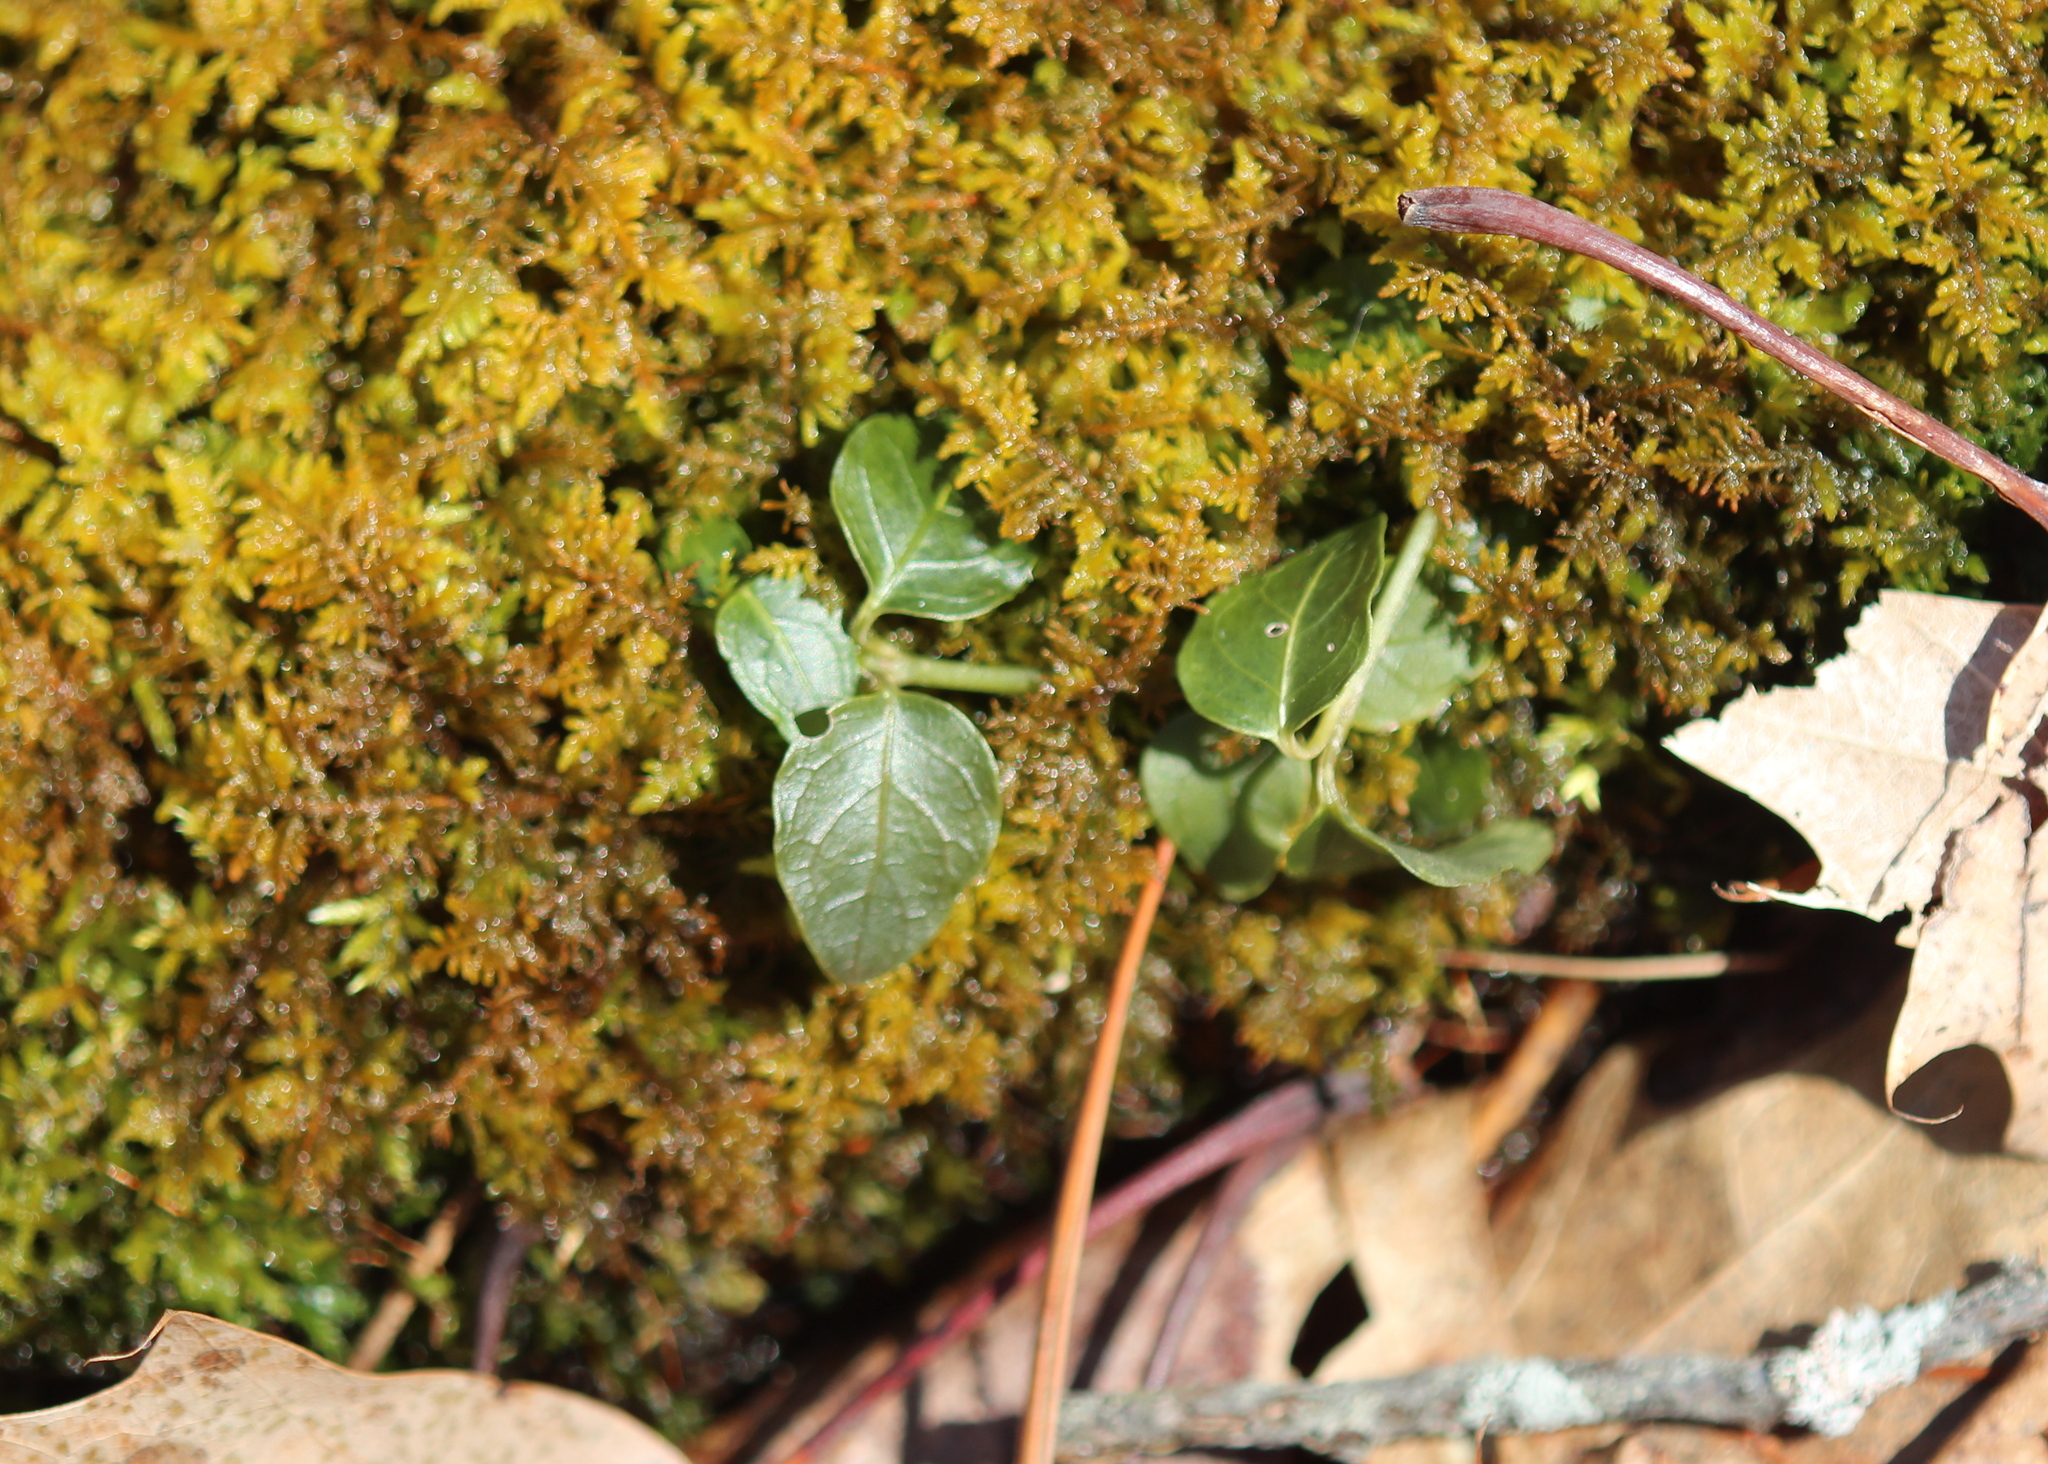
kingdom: Plantae
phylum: Tracheophyta
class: Magnoliopsida
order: Gentianales
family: Rubiaceae
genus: Mitchella
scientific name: Mitchella repens
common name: Partridge-berry
